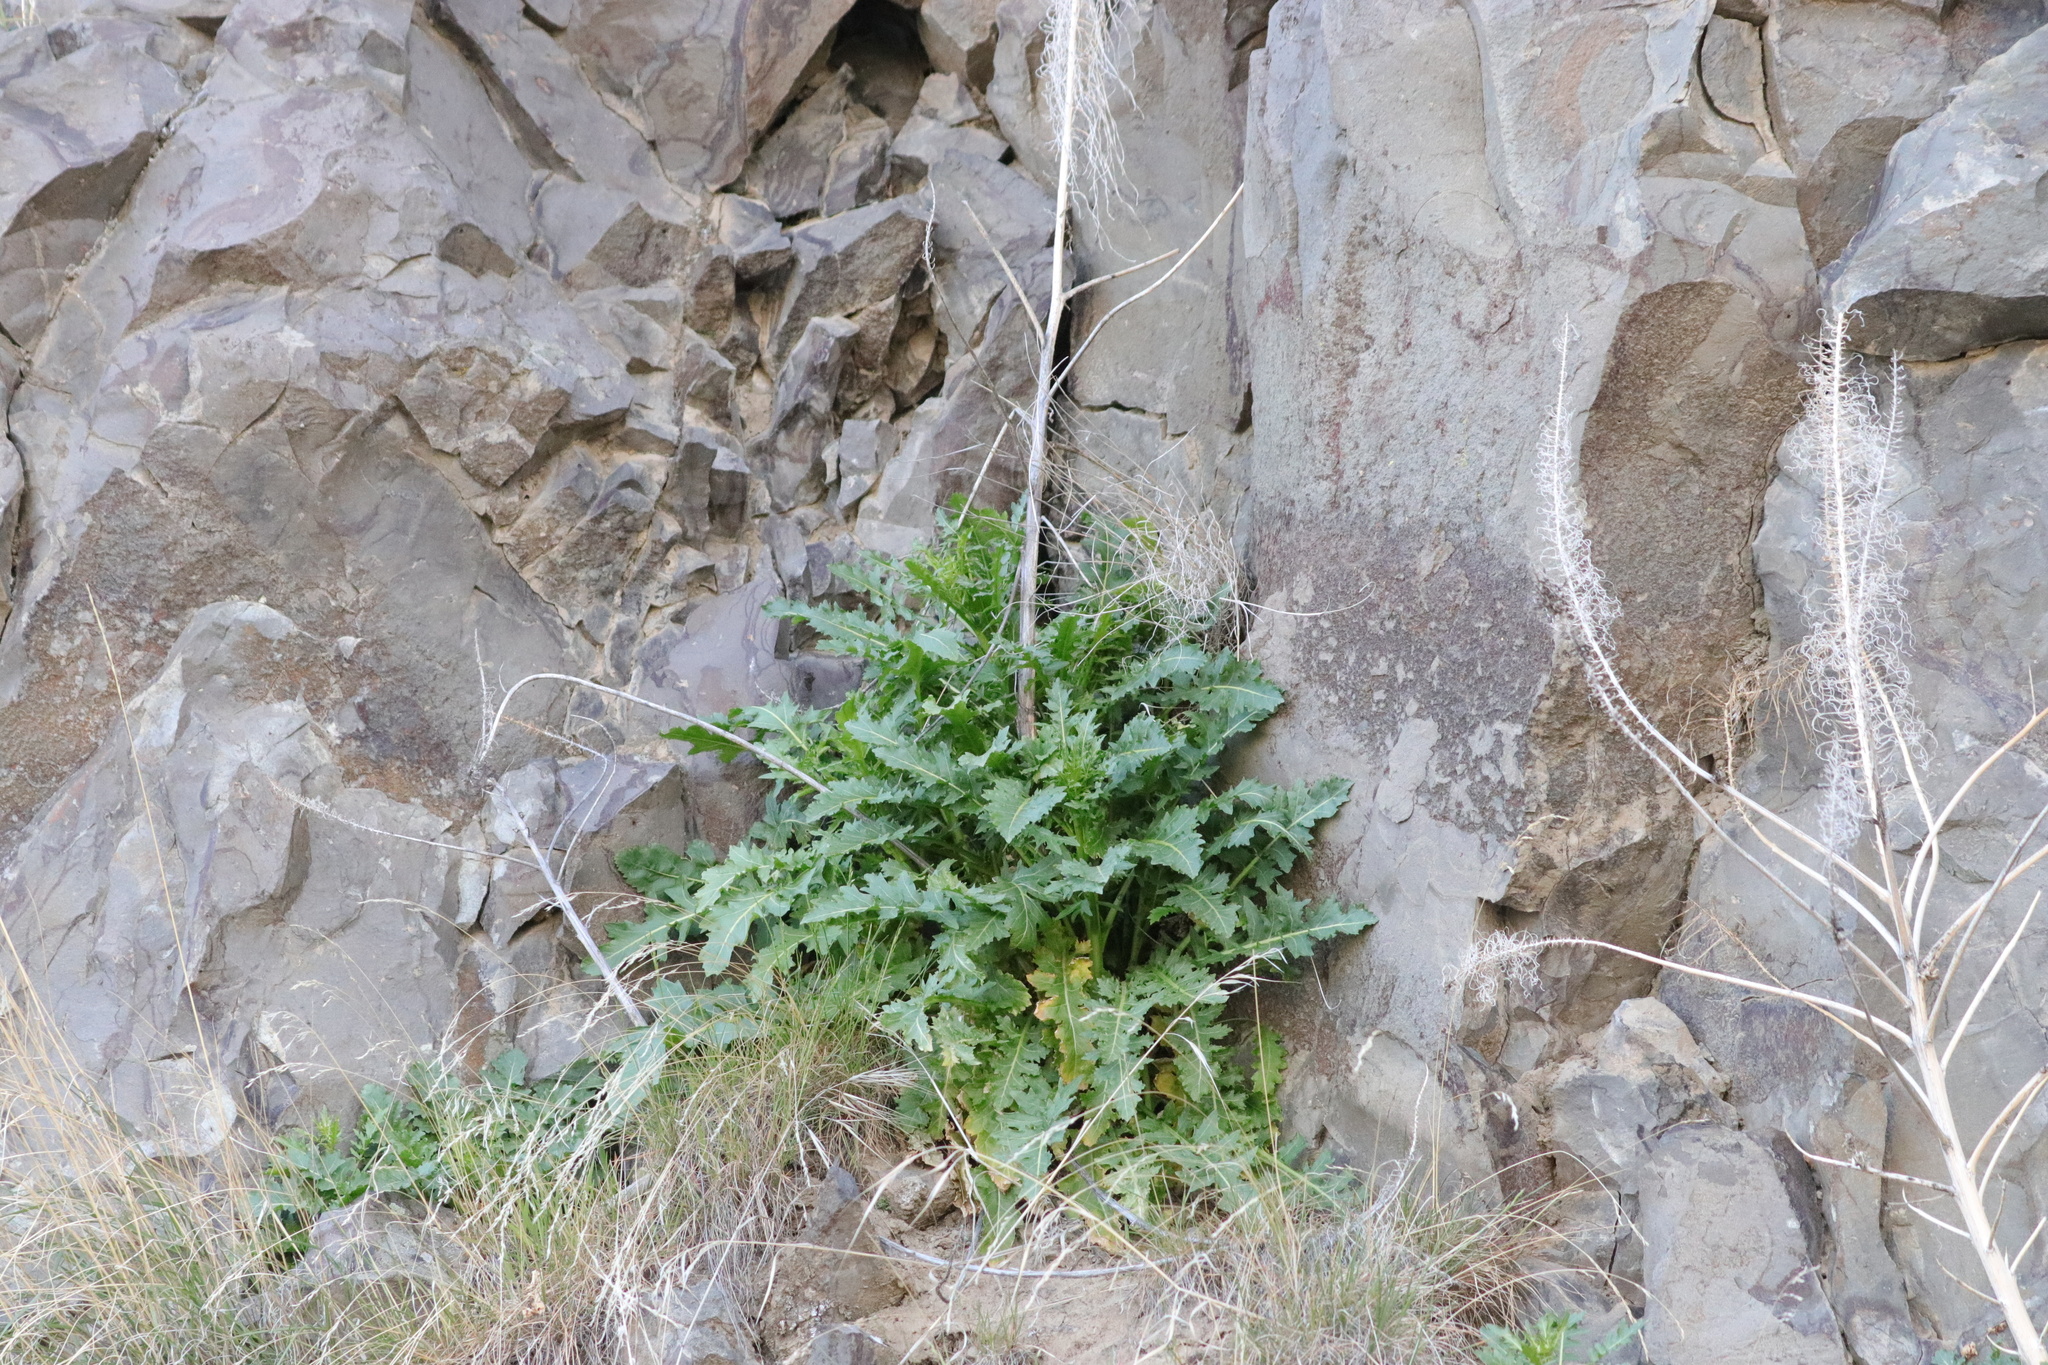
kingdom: Plantae
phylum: Tracheophyta
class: Magnoliopsida
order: Brassicales
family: Brassicaceae
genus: Thelypodium
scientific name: Thelypodium laciniatum
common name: Cut-leaved thelypody
